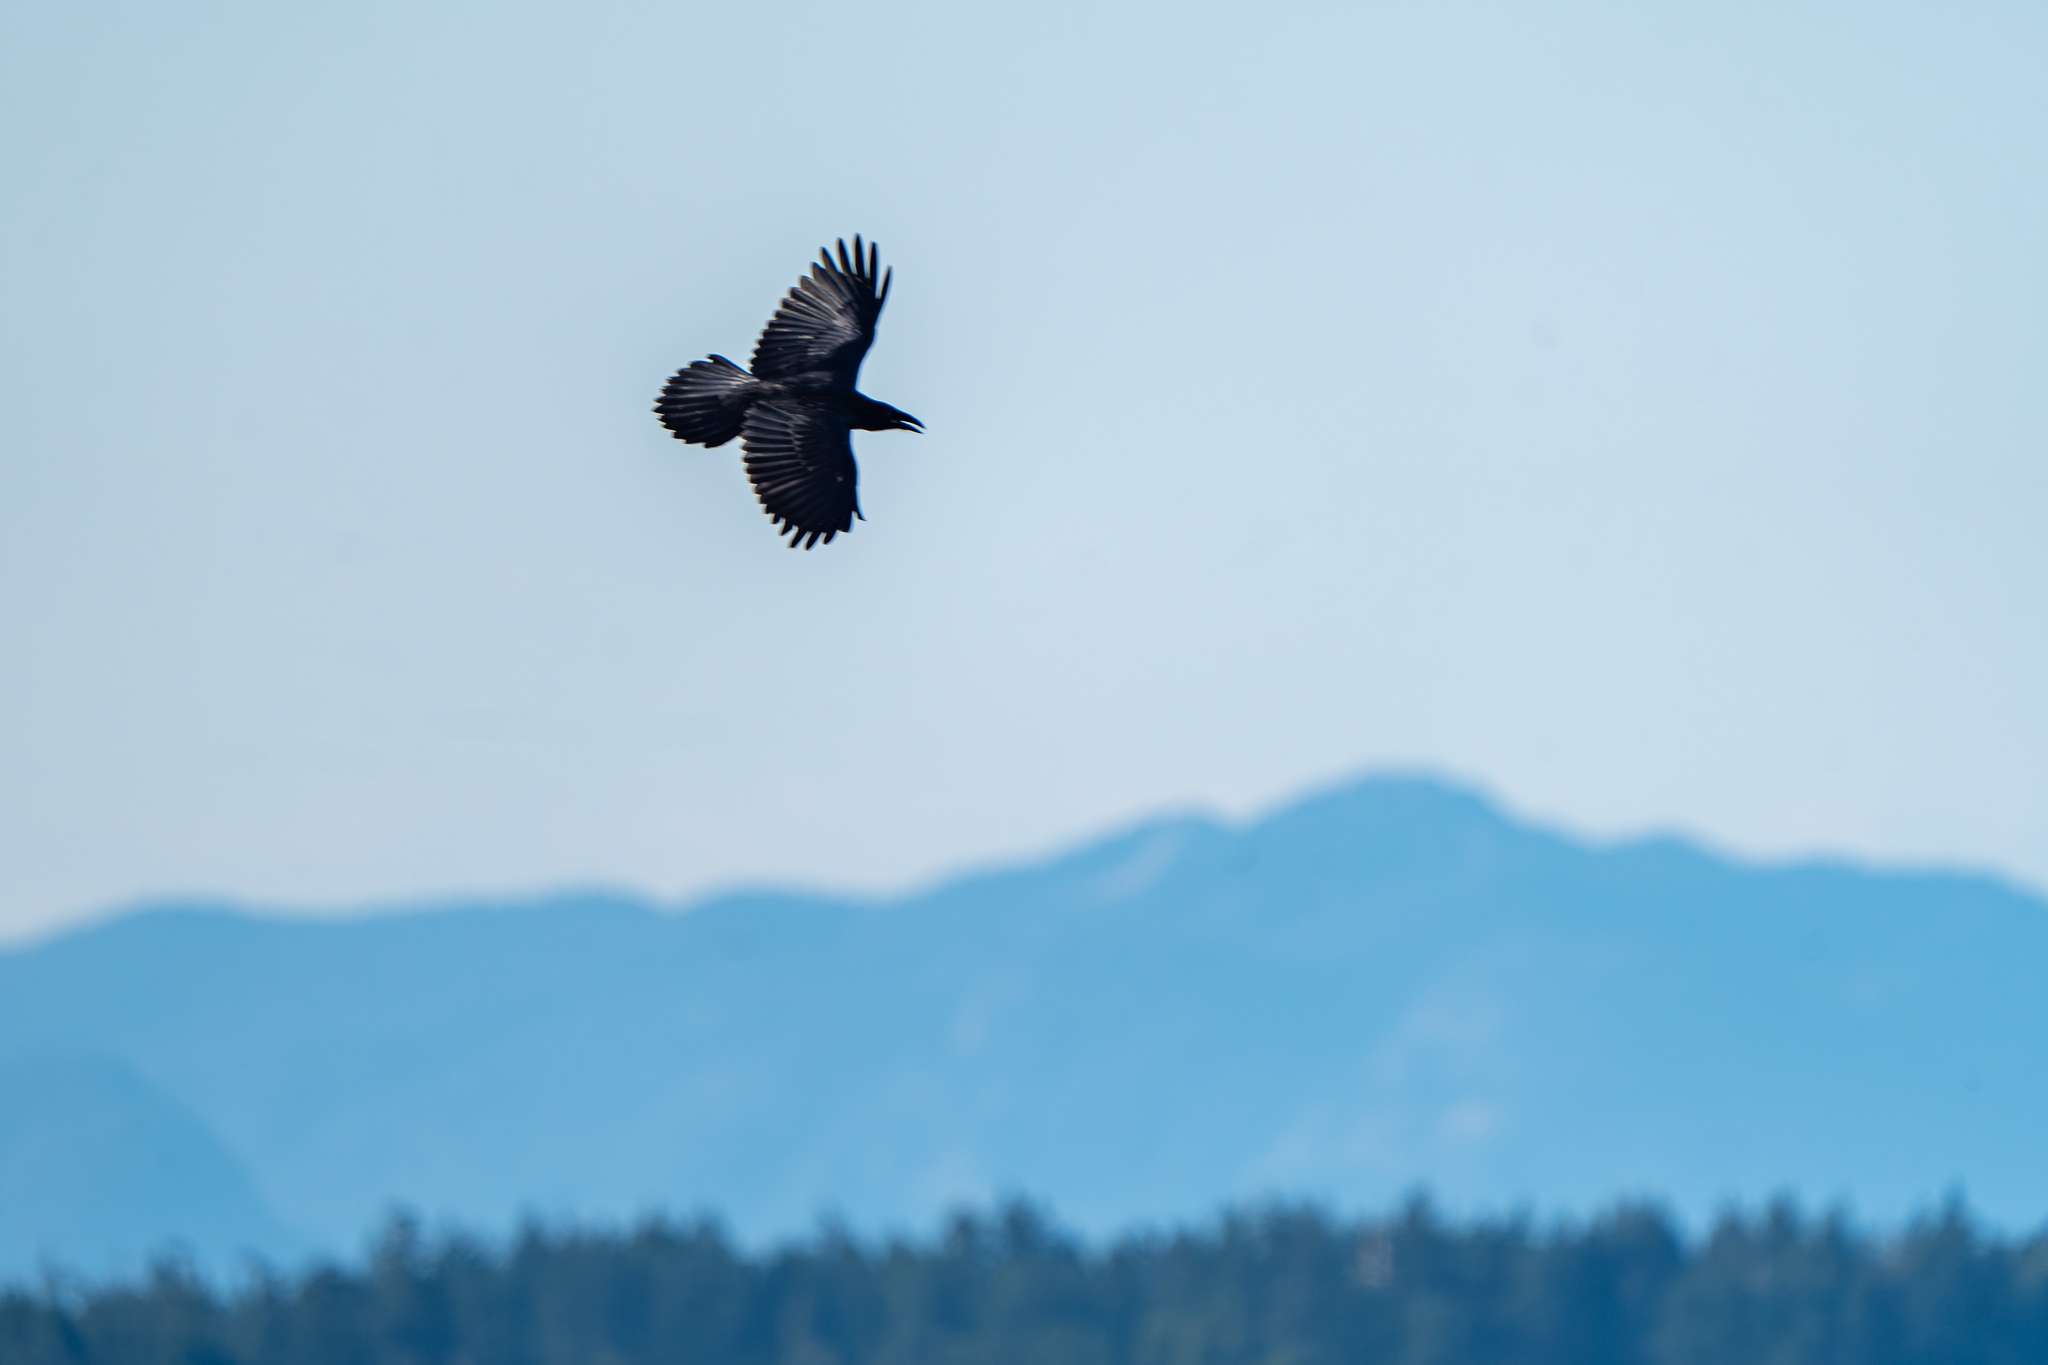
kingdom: Animalia
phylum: Chordata
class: Aves
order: Passeriformes
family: Corvidae
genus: Corvus
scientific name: Corvus corax
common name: Common raven
